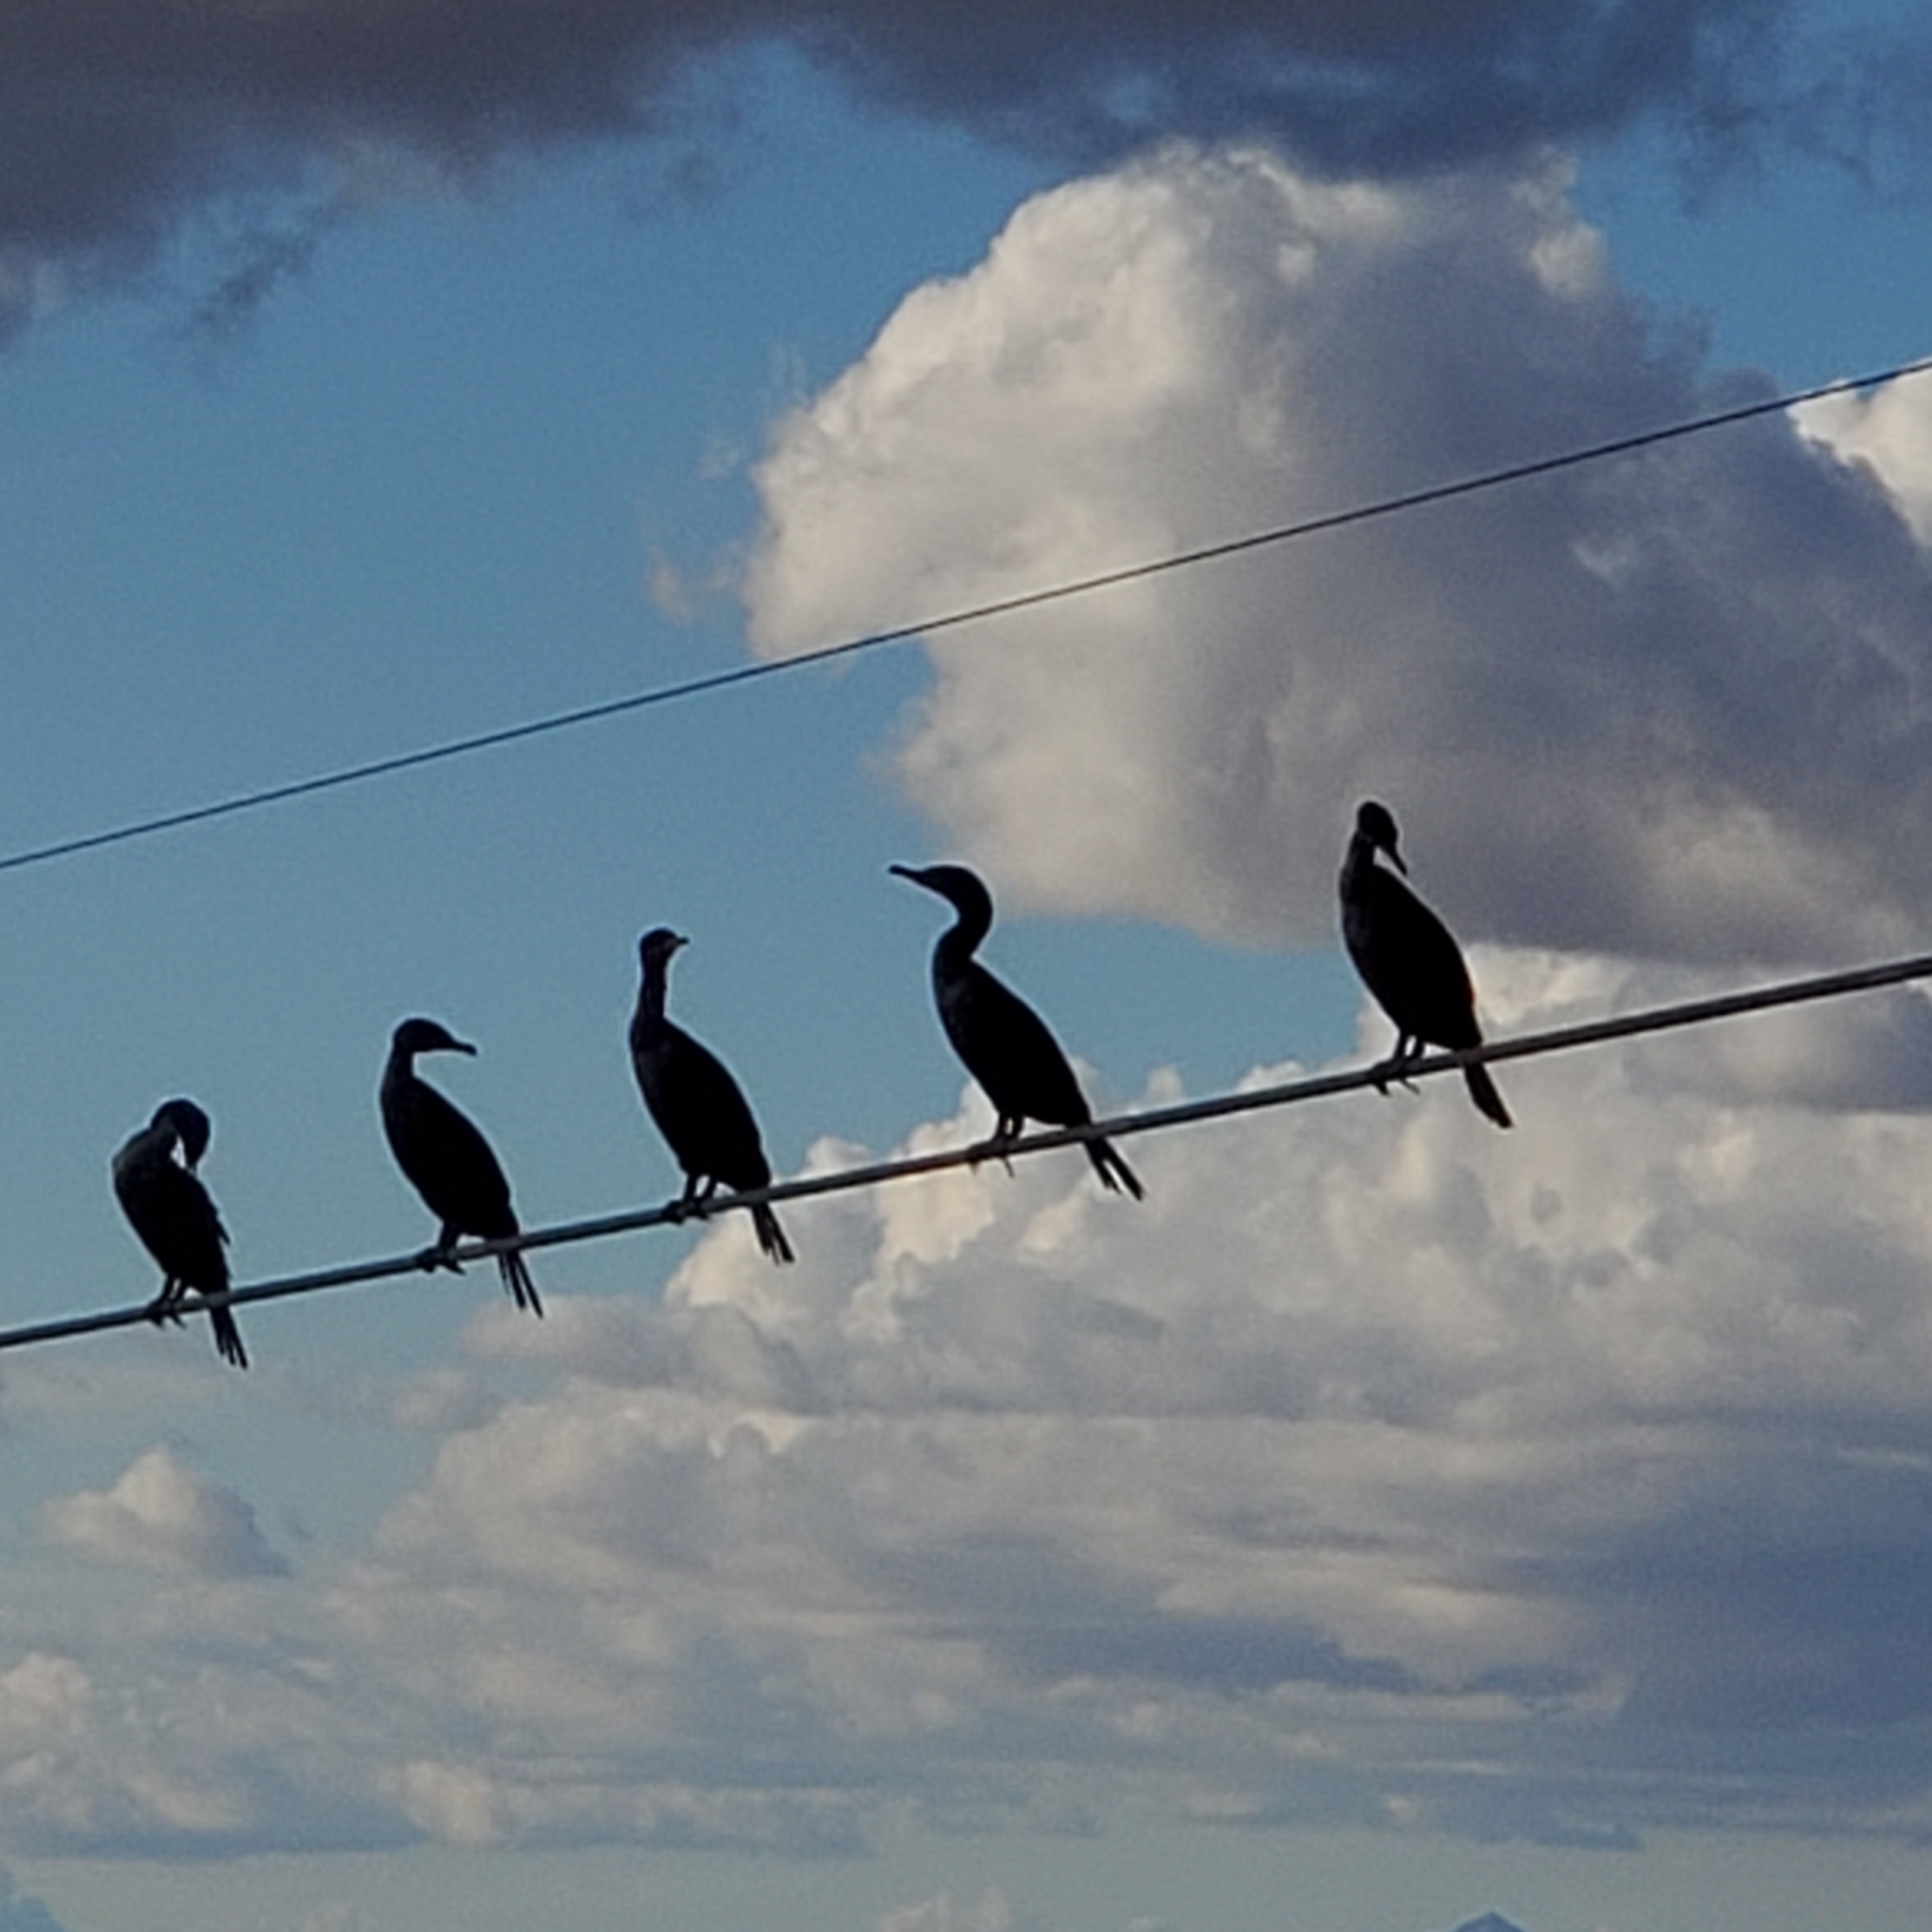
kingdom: Animalia
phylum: Chordata
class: Aves
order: Suliformes
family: Phalacrocoracidae
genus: Phalacrocorax
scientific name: Phalacrocorax auritus
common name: Double-crested cormorant
